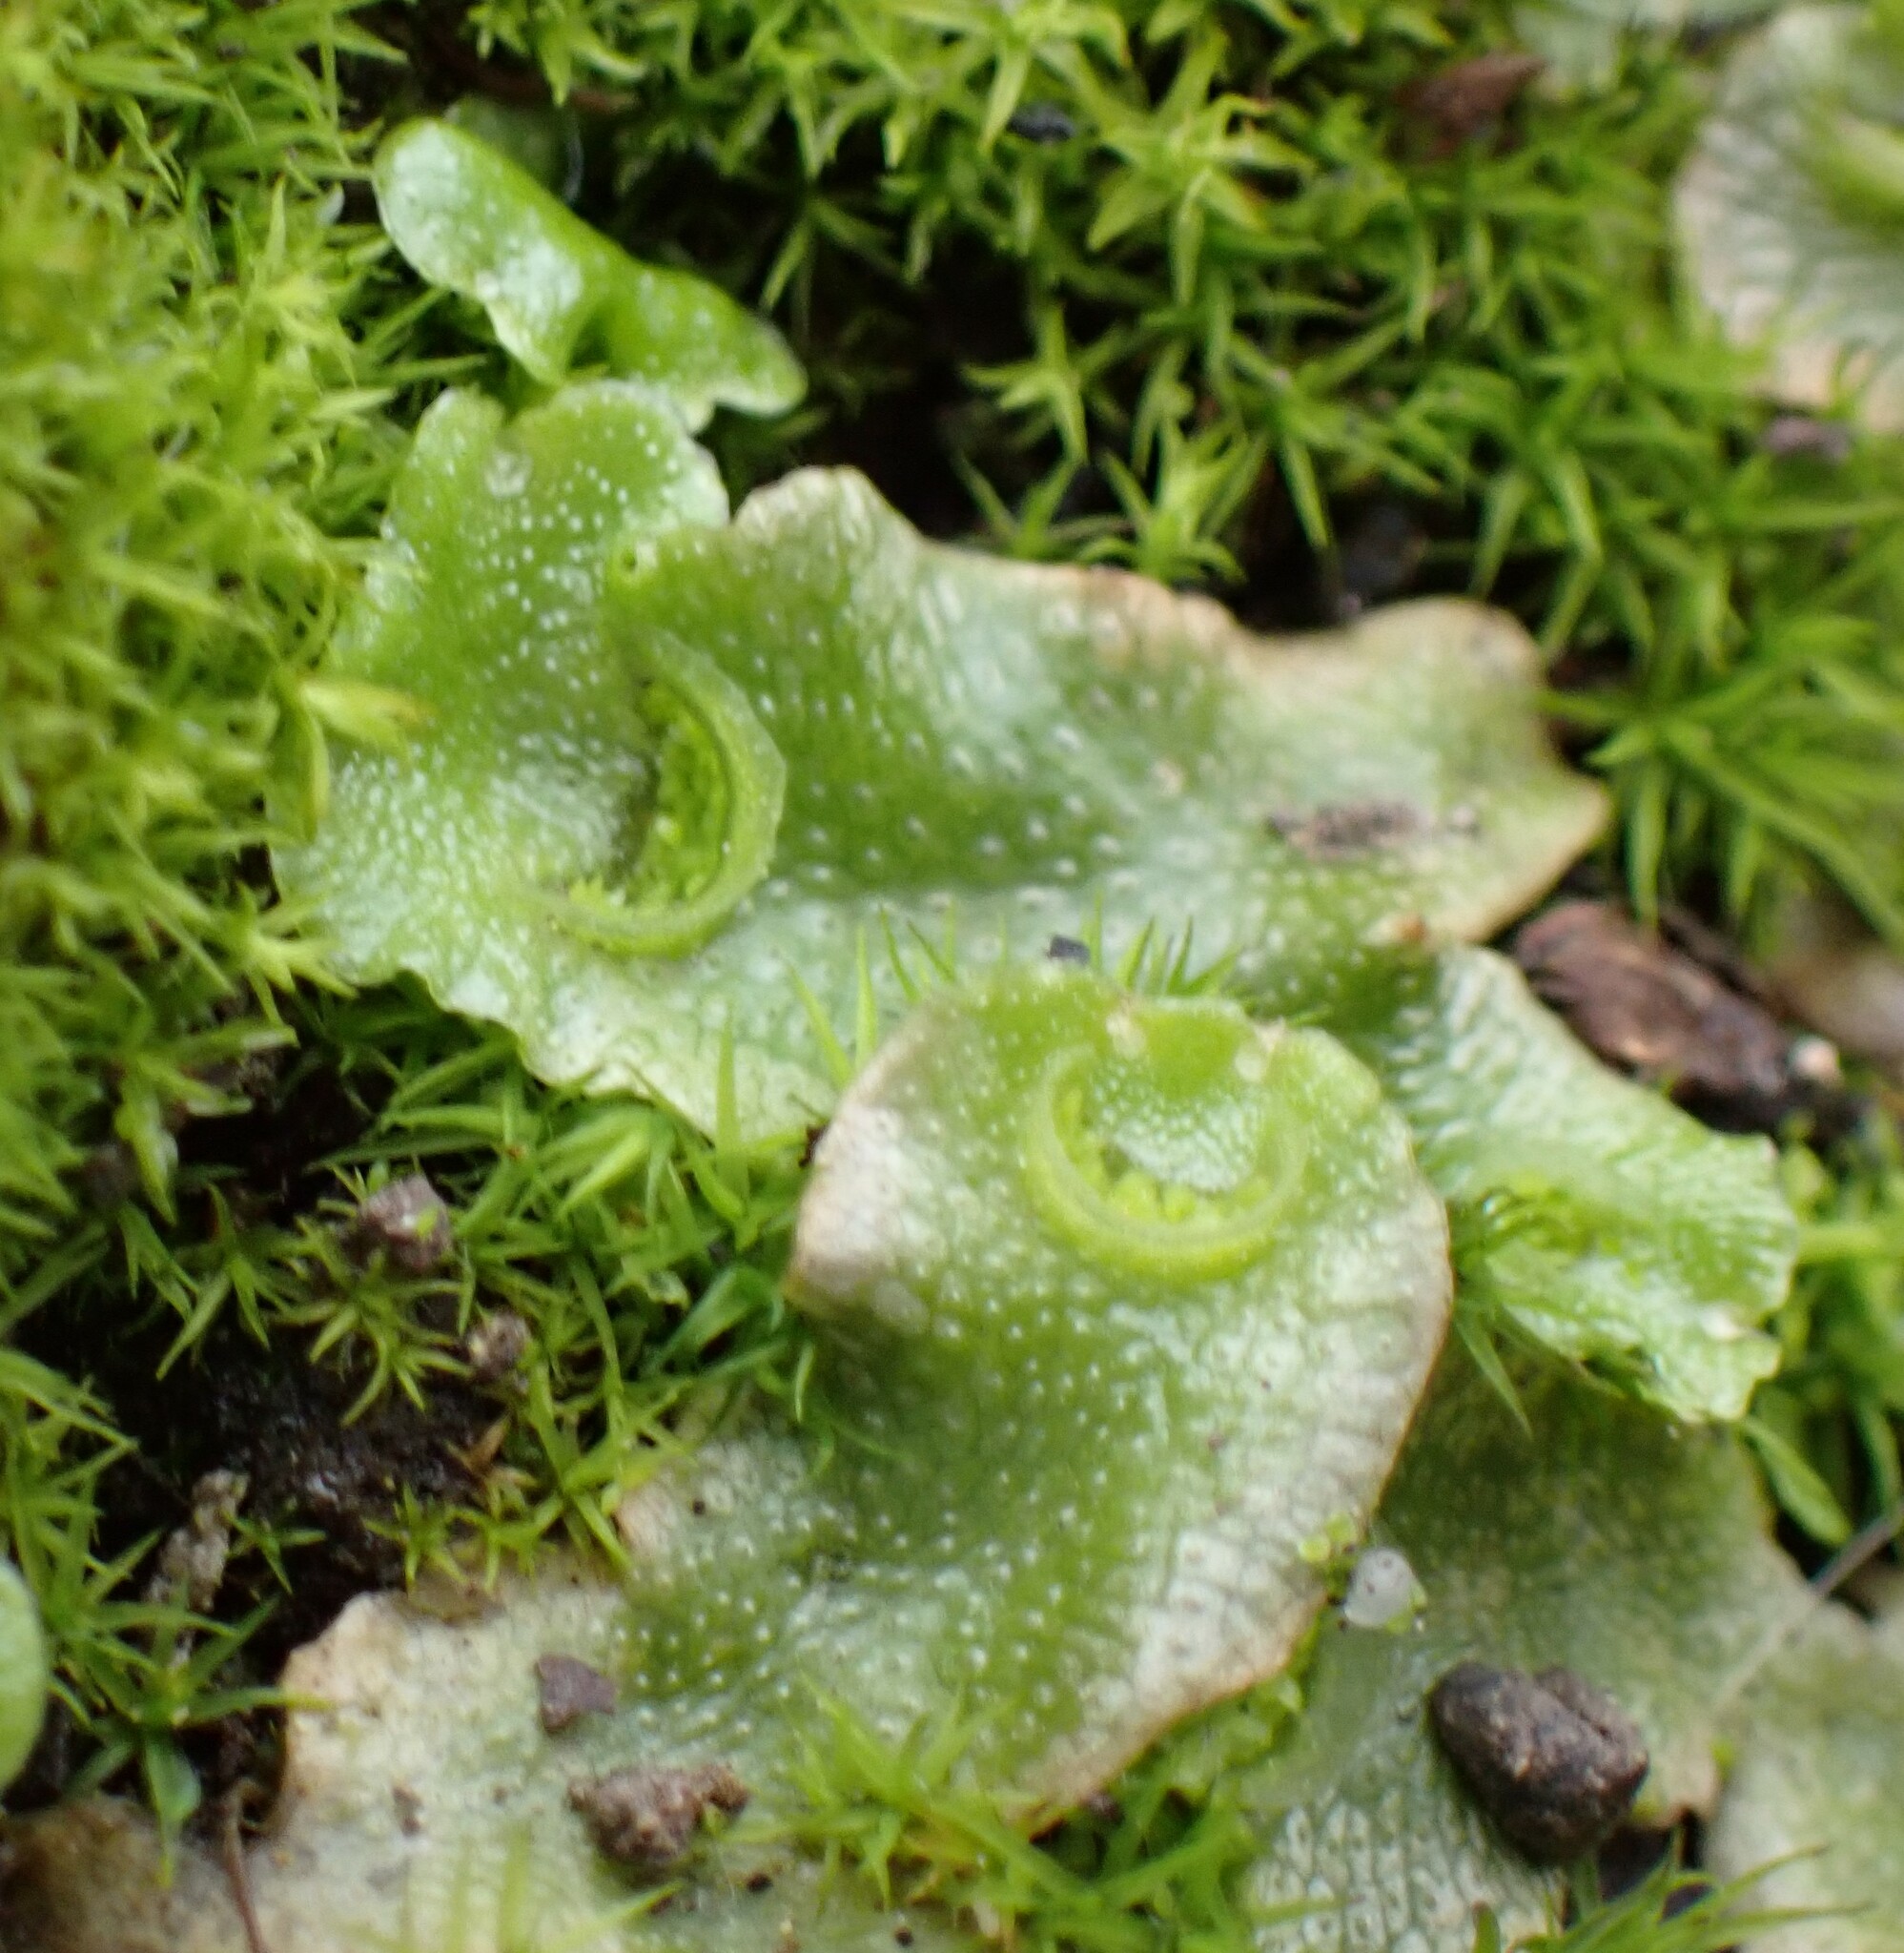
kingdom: Plantae
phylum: Marchantiophyta
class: Marchantiopsida
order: Lunulariales
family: Lunulariaceae
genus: Lunularia
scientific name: Lunularia cruciata
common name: Crescent-cup liverwort
